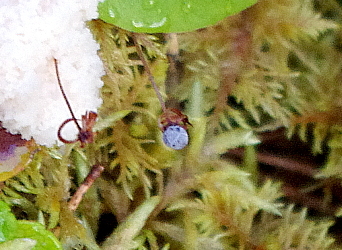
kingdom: Plantae
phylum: Tracheophyta
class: Magnoliopsida
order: Ericales
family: Primulaceae
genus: Lysimachia
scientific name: Lysimachia europaea
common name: Arctic starflower
